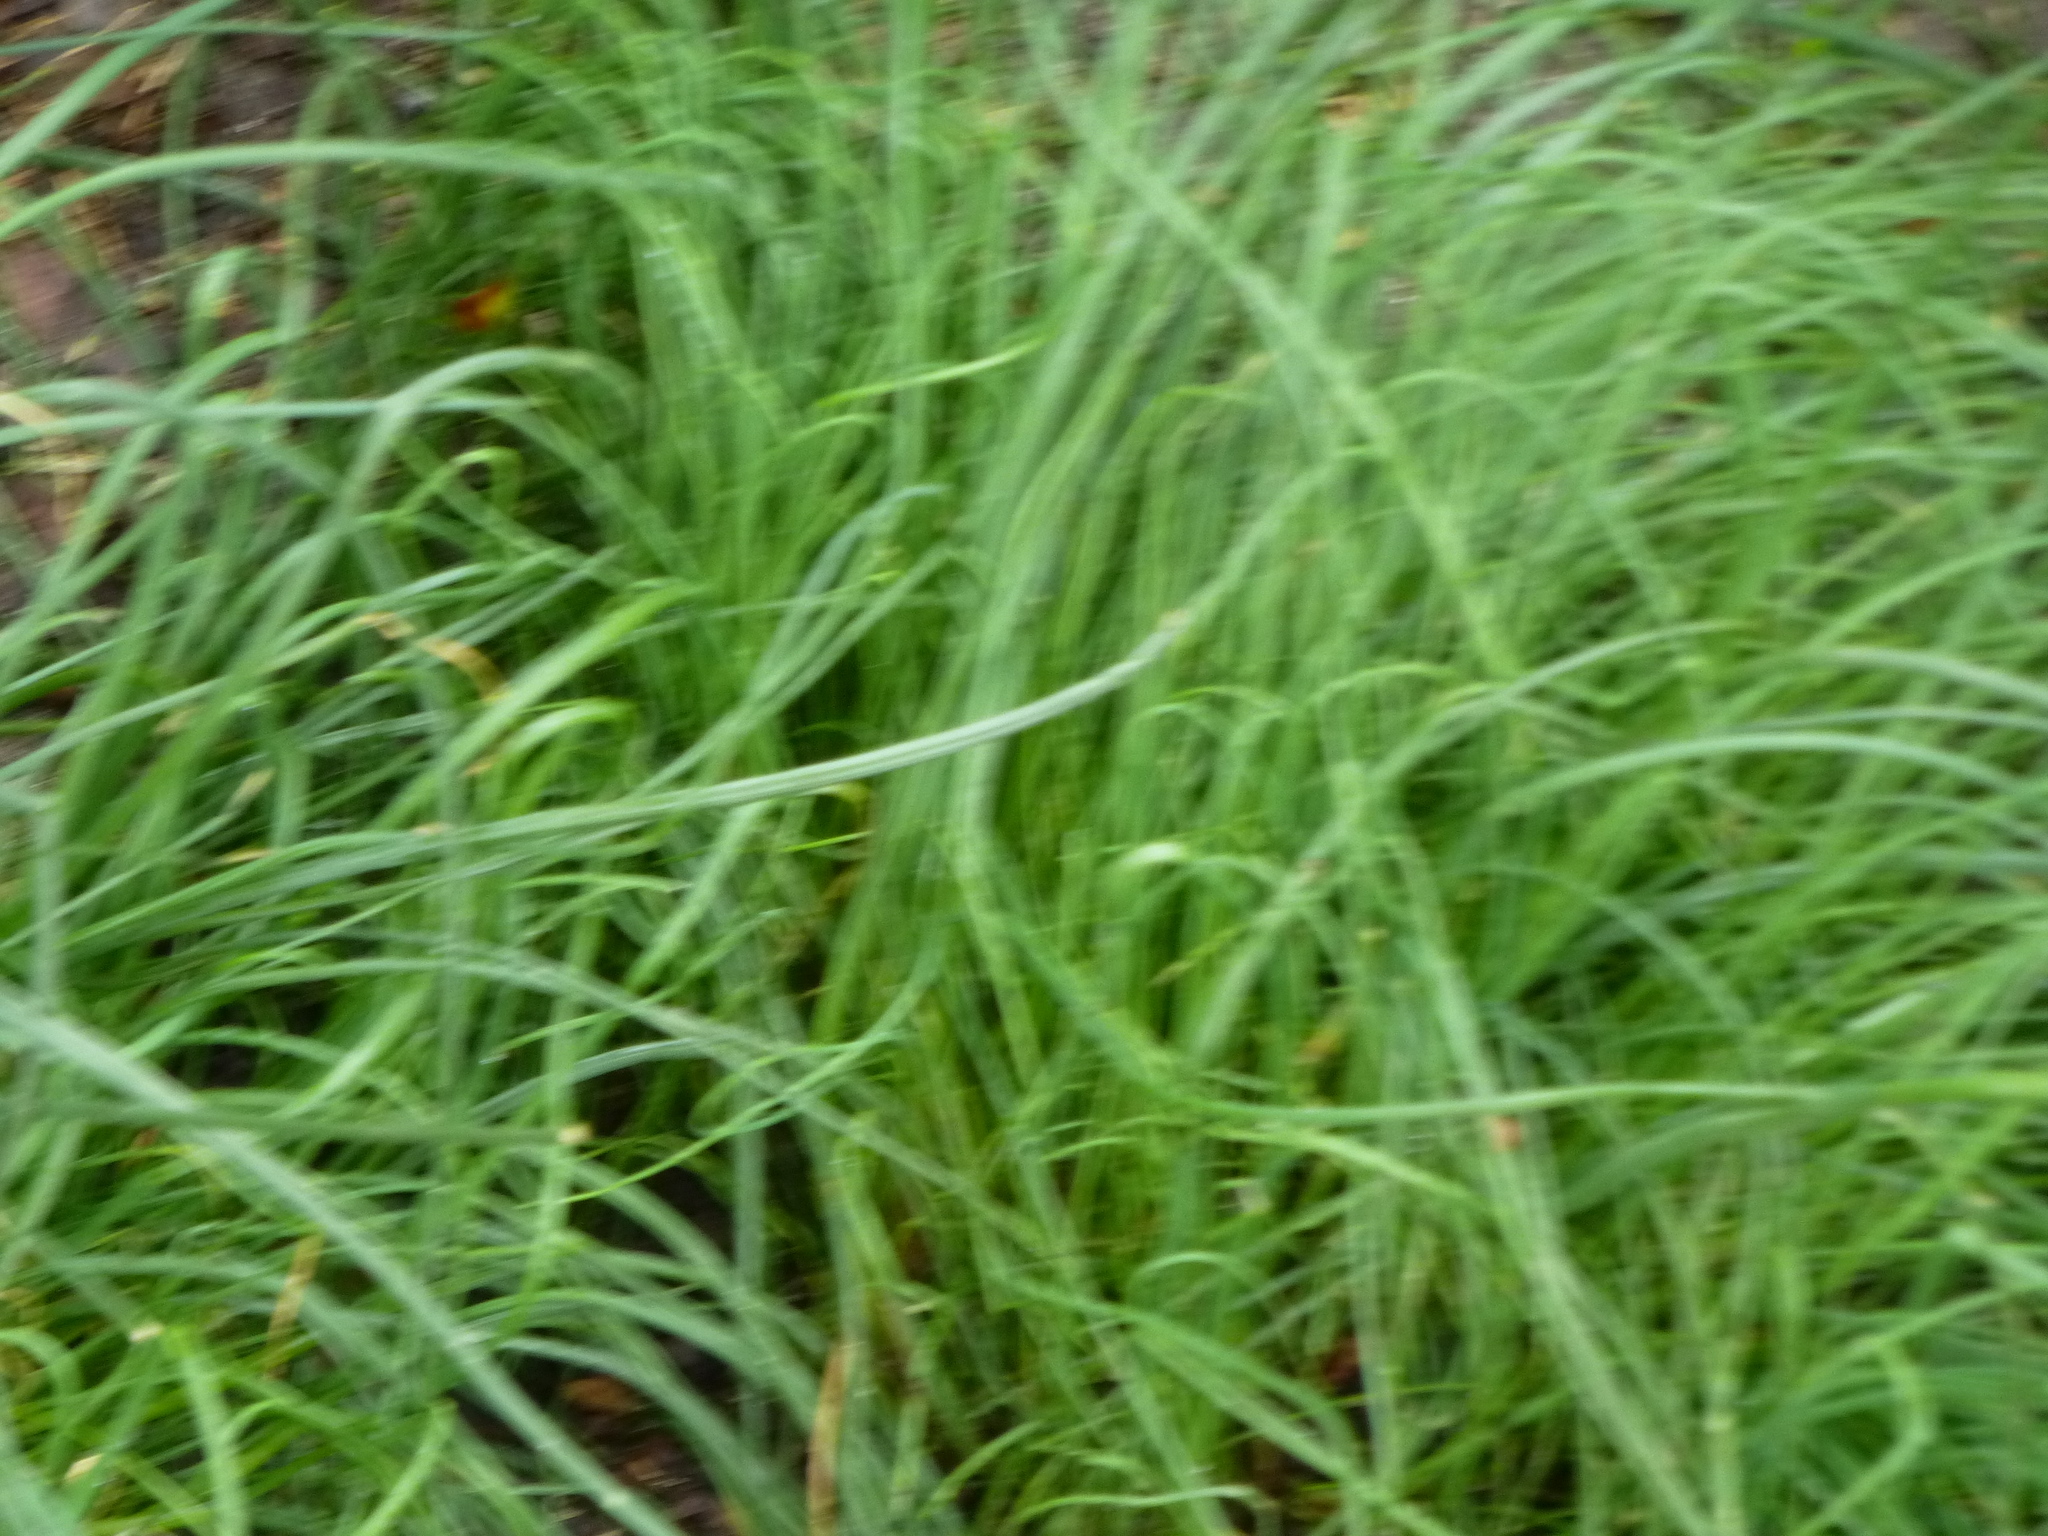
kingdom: Plantae
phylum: Tracheophyta
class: Liliopsida
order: Asparagales
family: Amaryllidaceae
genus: Allium
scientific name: Allium vineale
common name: Crow garlic
